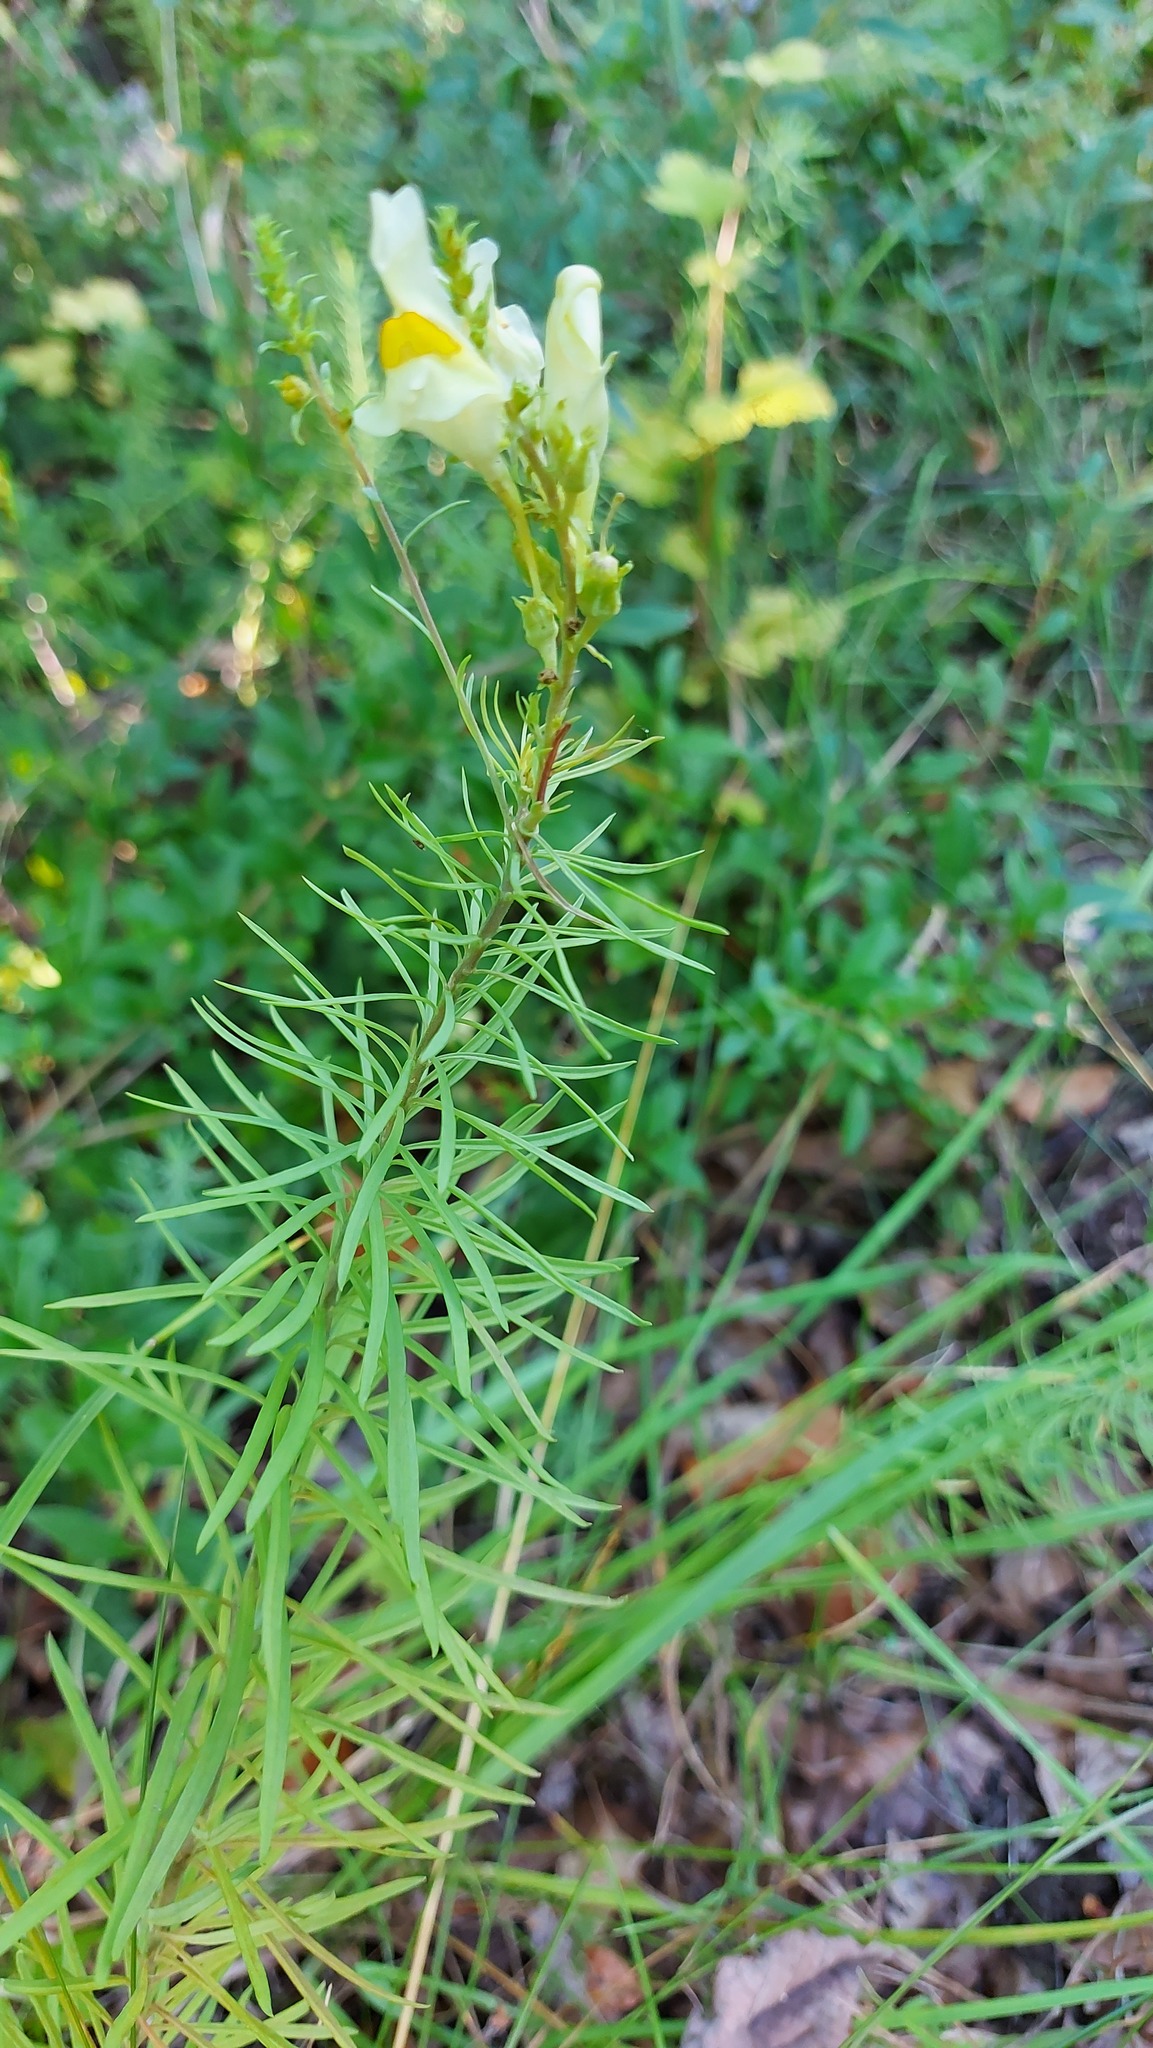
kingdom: Plantae
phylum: Tracheophyta
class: Magnoliopsida
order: Lamiales
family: Plantaginaceae
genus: Linaria
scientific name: Linaria vulgaris
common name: Butter and eggs
